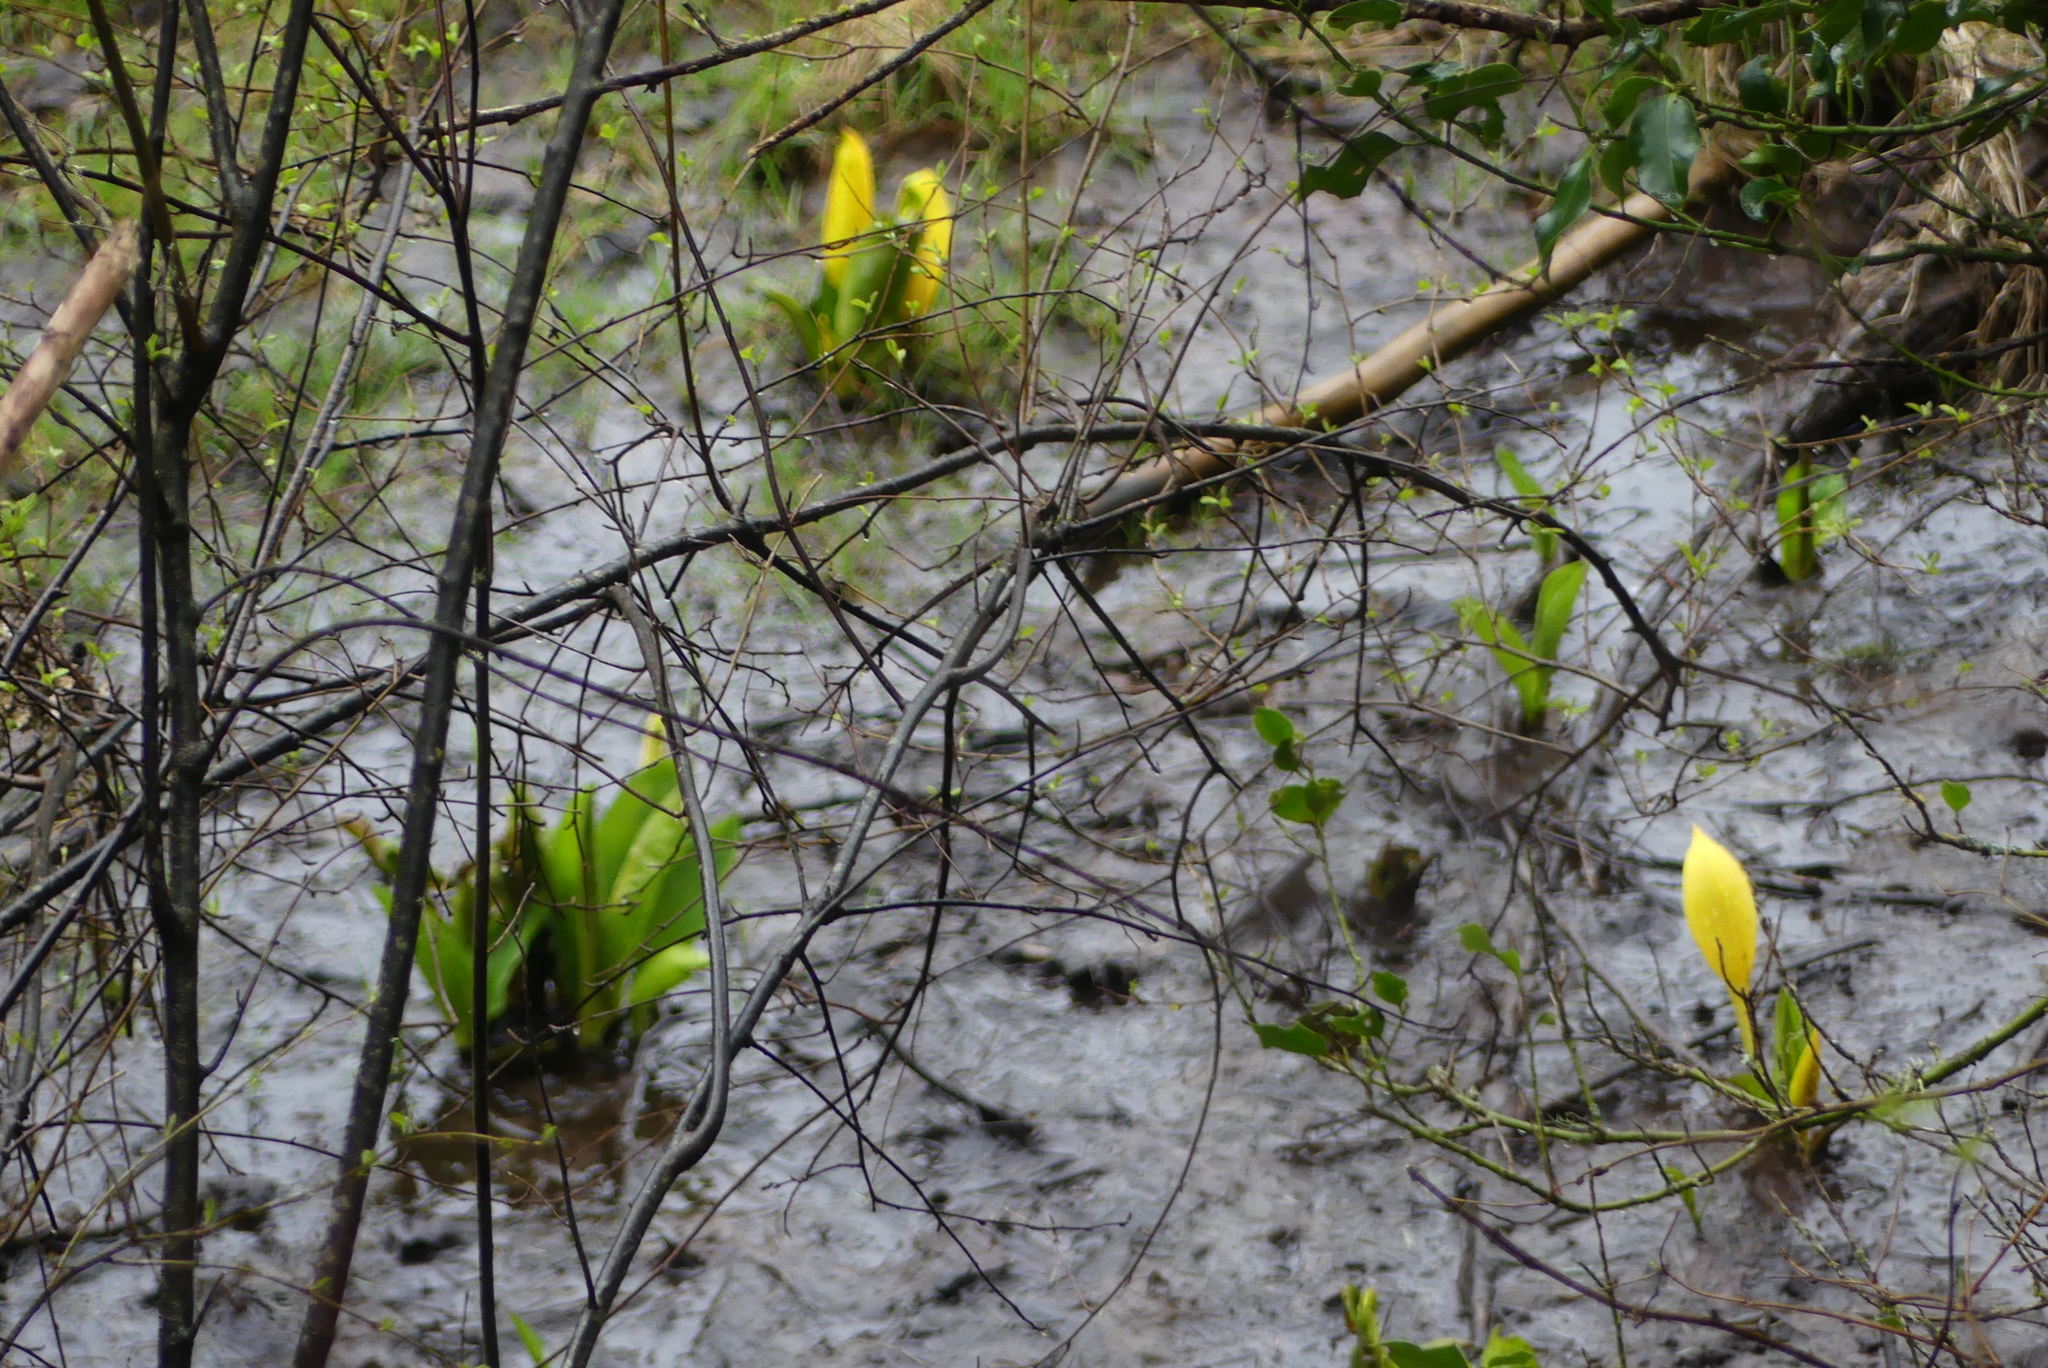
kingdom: Plantae
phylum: Tracheophyta
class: Liliopsida
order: Alismatales
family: Araceae
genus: Lysichiton
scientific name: Lysichiton americanus
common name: American skunk cabbage
